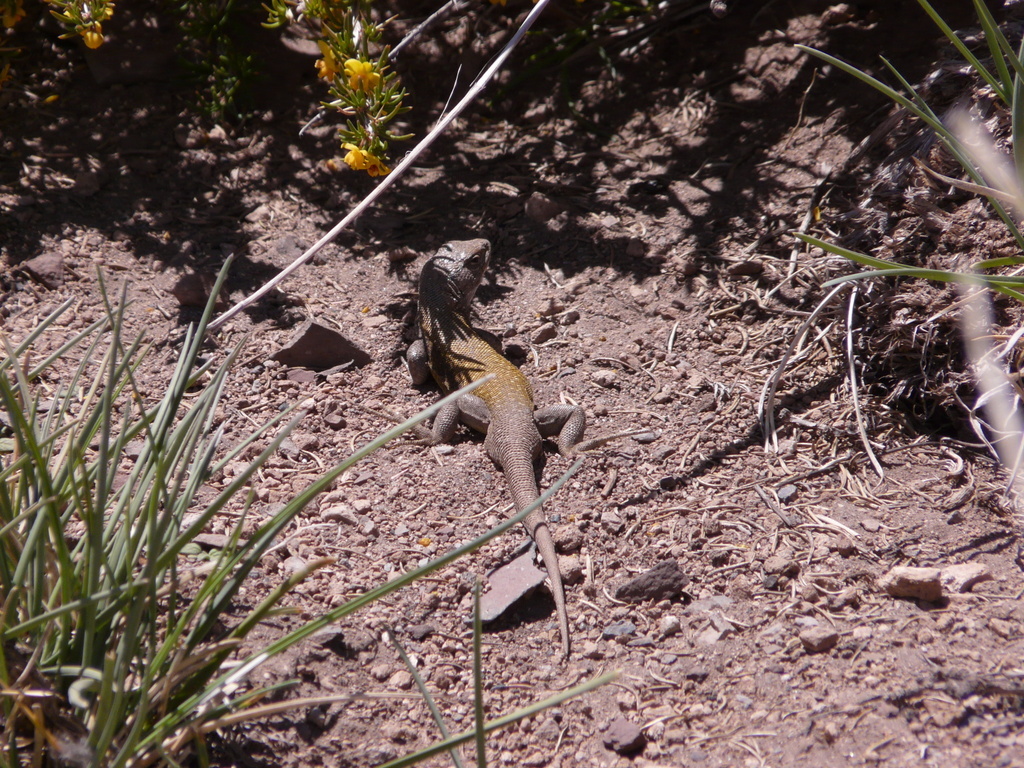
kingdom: Animalia
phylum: Chordata
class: Squamata
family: Liolaemidae
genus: Liolaemus
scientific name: Liolaemus smaug
